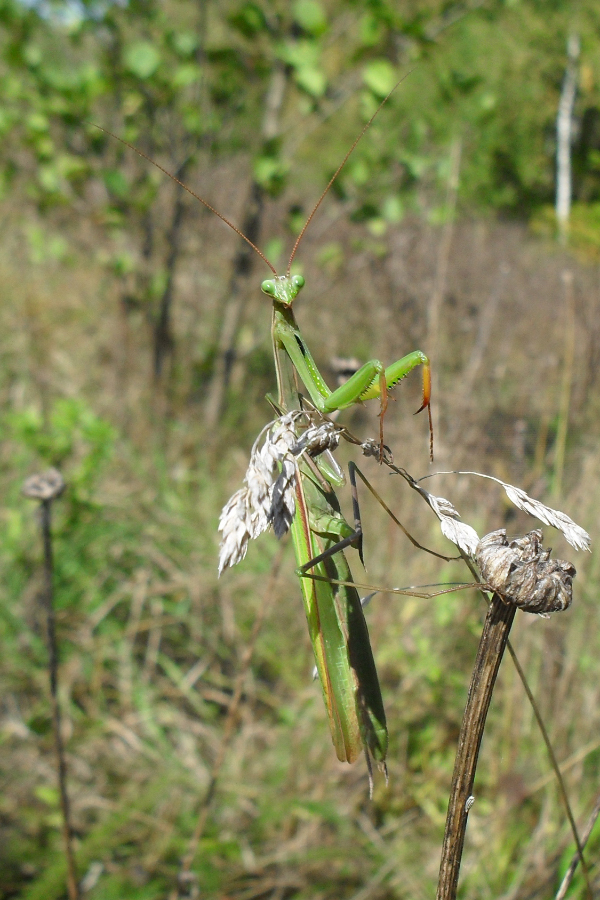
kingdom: Animalia
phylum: Arthropoda
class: Insecta
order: Mantodea
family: Mantidae
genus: Mantis
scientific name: Mantis religiosa
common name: Praying mantis
